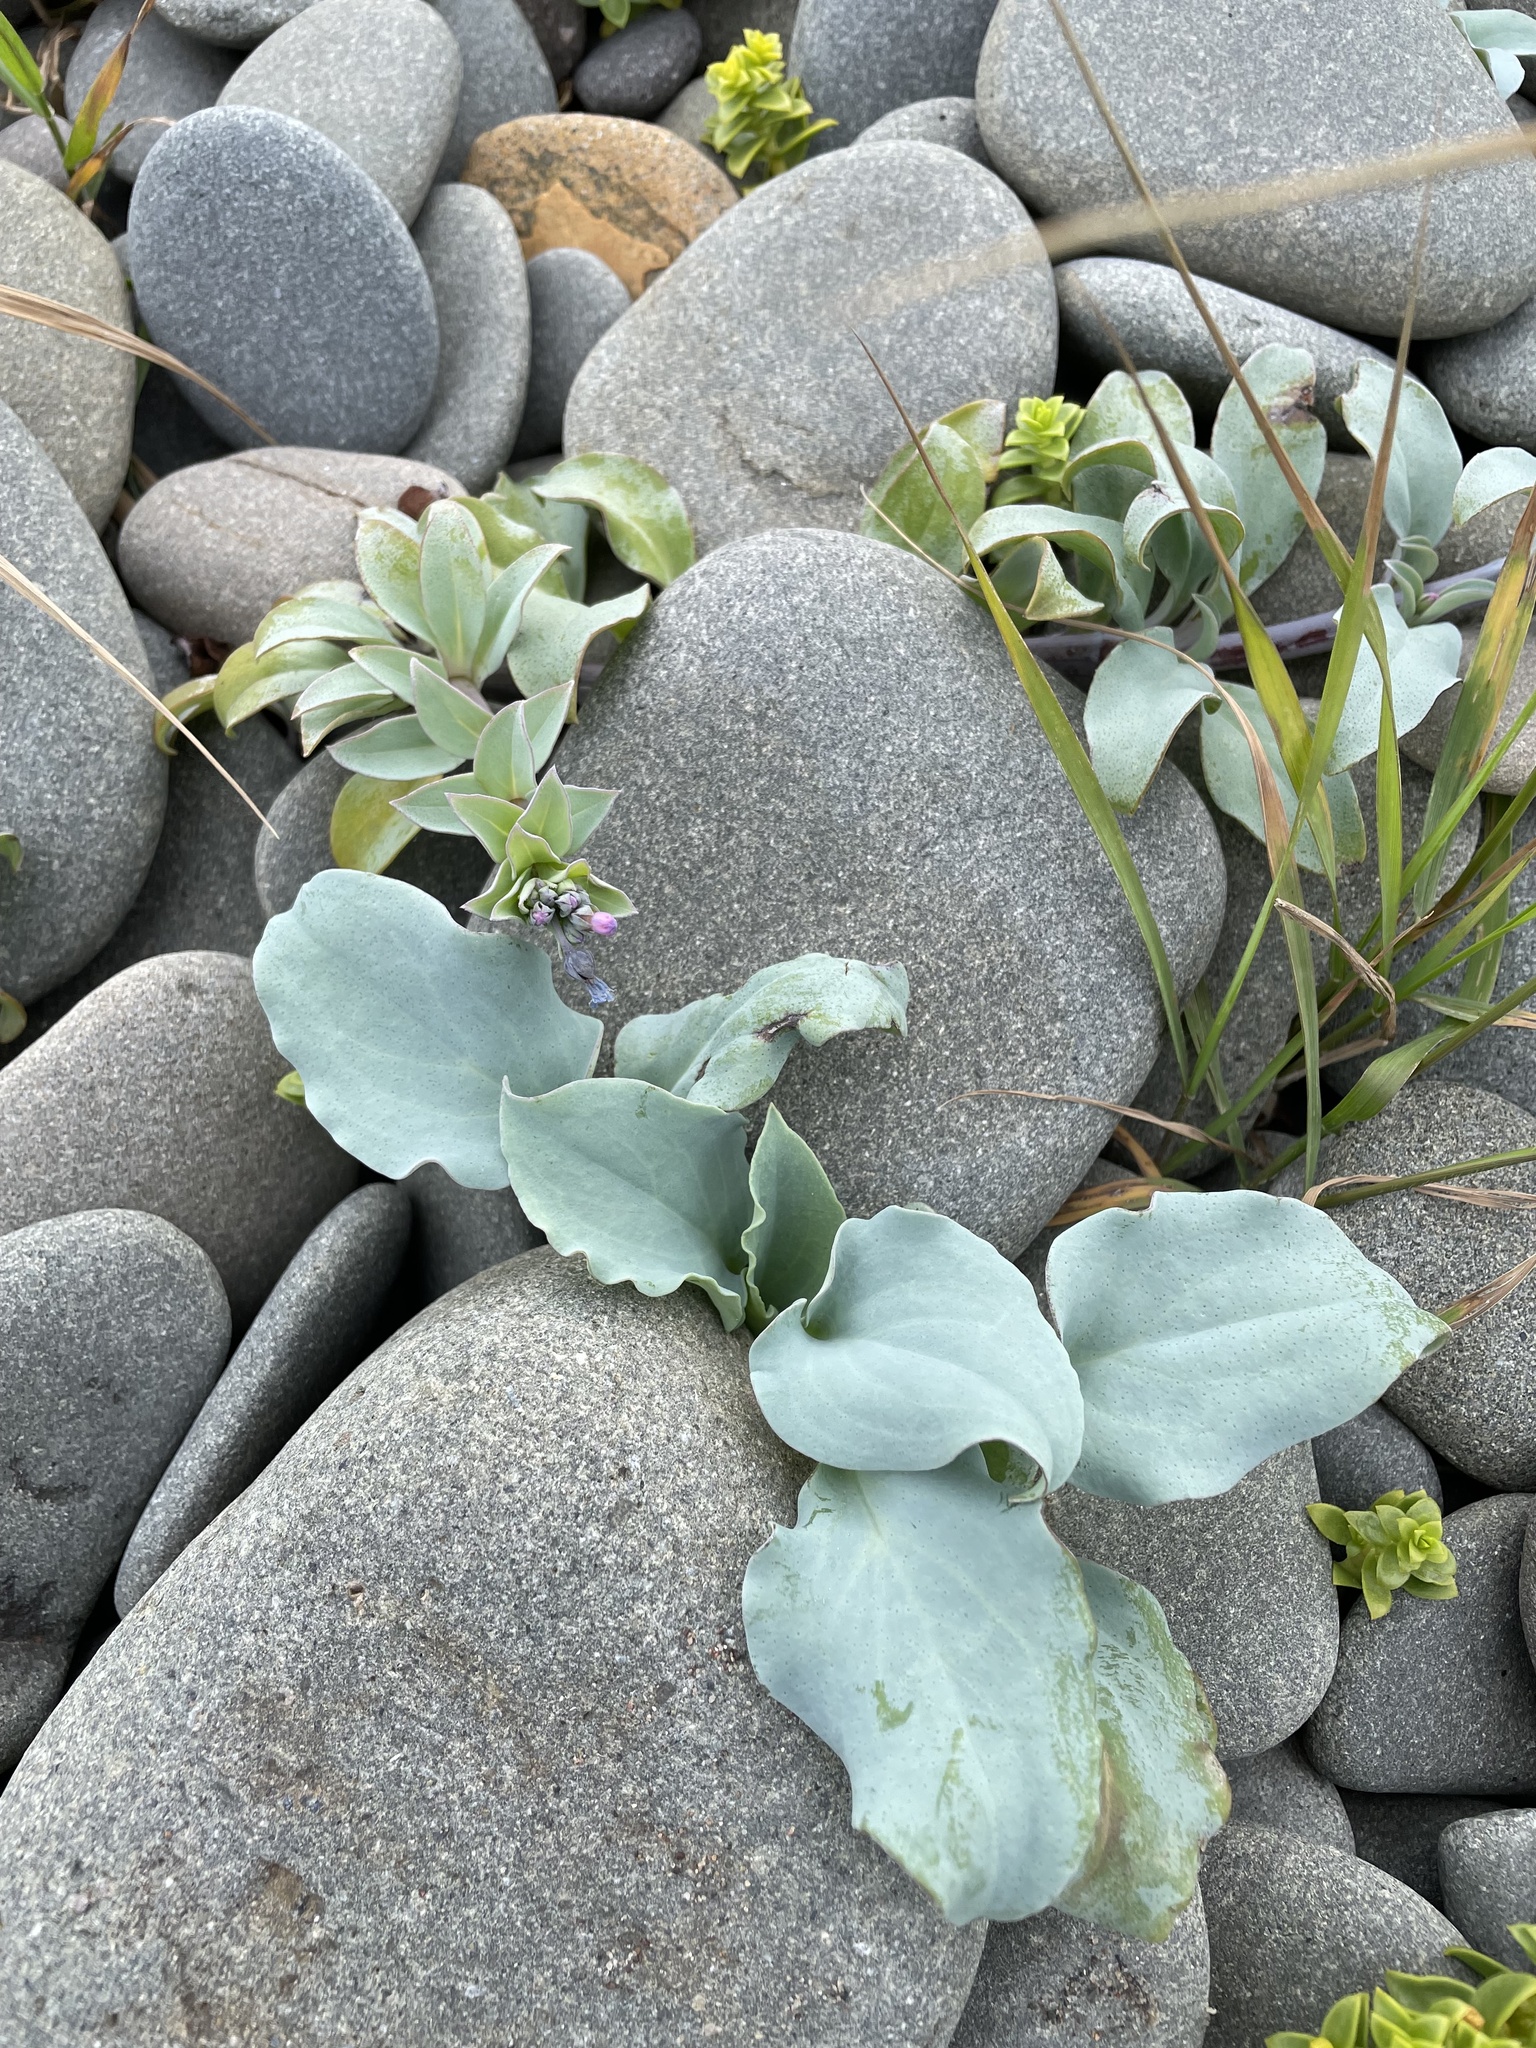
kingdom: Plantae
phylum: Tracheophyta
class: Magnoliopsida
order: Boraginales
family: Boraginaceae
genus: Mertensia
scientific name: Mertensia maritima
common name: Oysterplant
